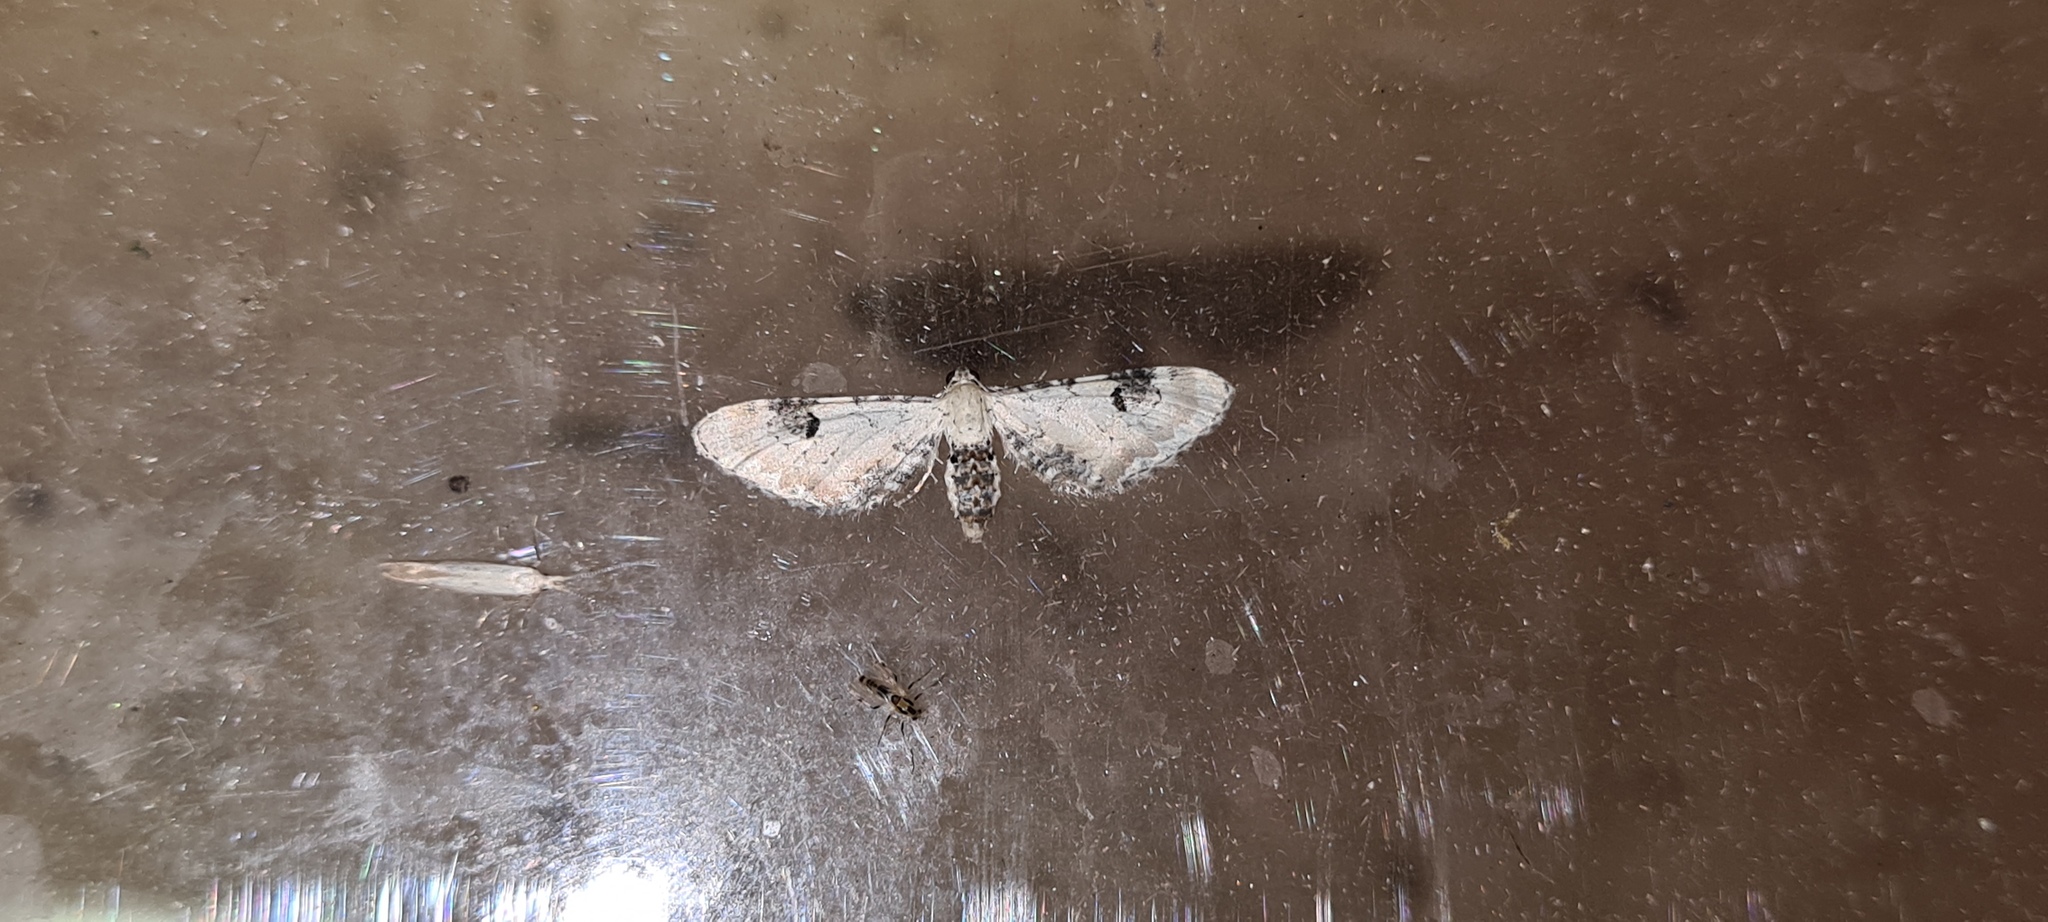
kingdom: Animalia
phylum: Arthropoda
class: Insecta
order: Lepidoptera
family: Geometridae
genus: Eupithecia
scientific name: Eupithecia centaureata
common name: Lime-speck pug
